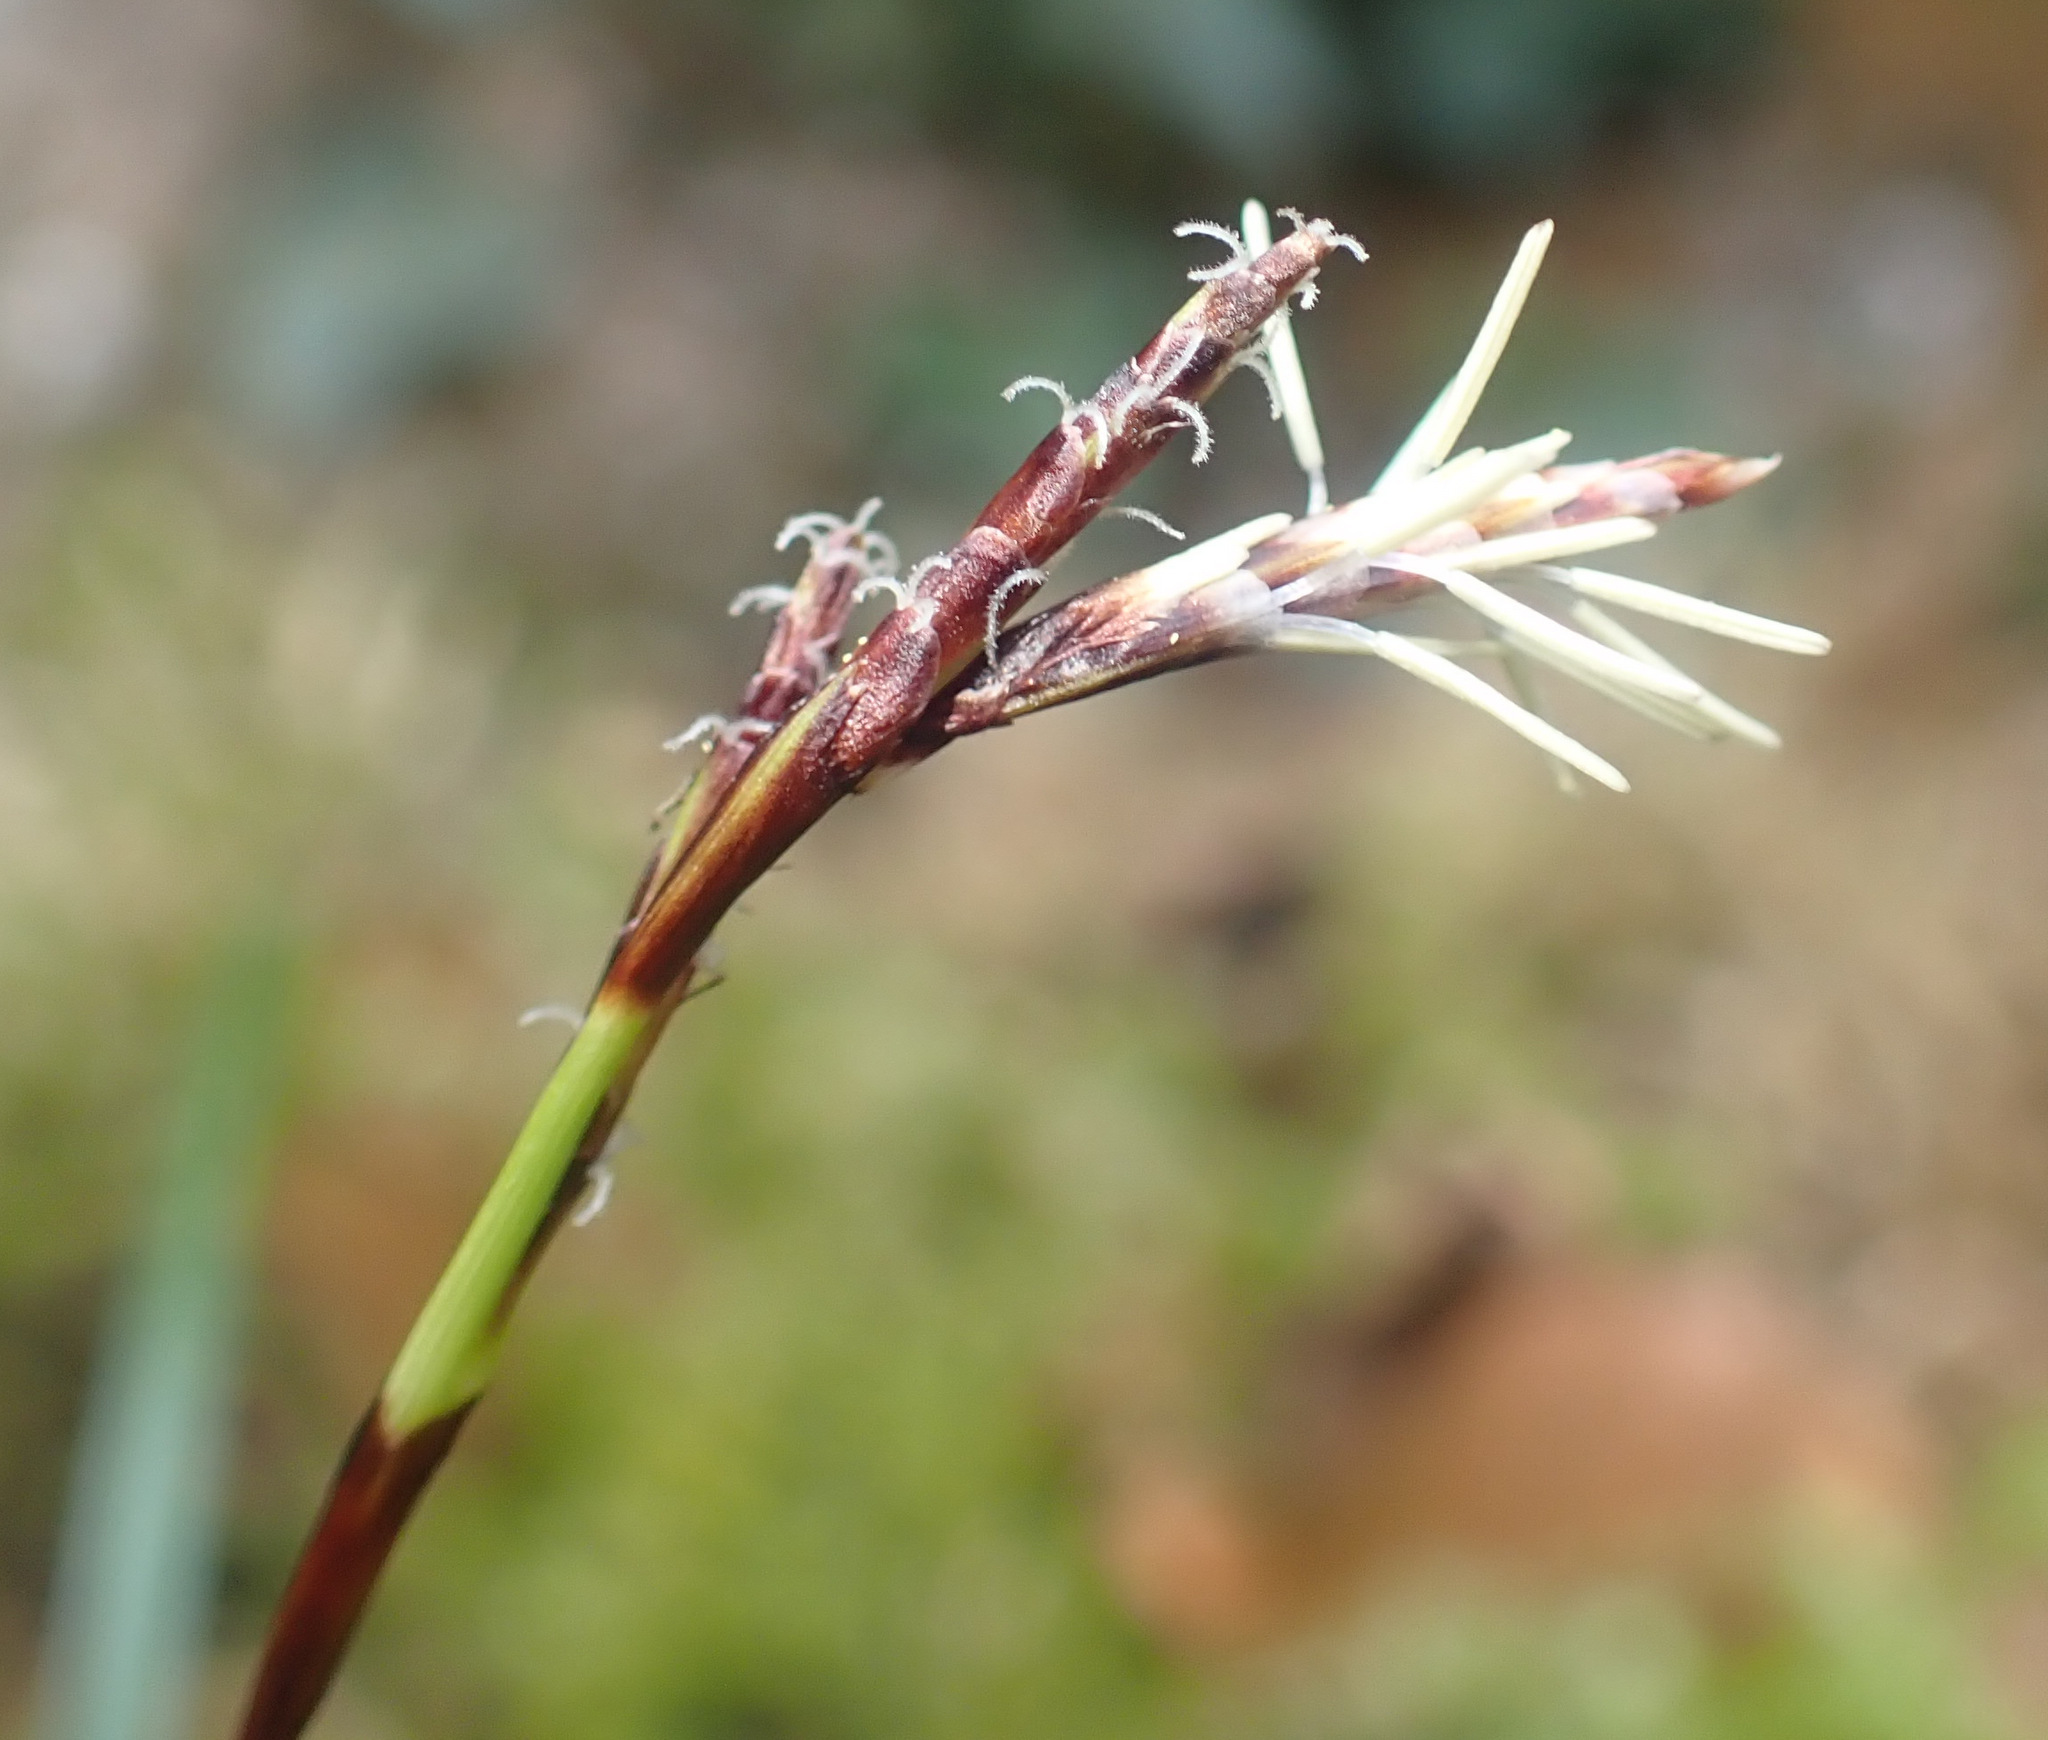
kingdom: Plantae
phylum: Tracheophyta
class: Liliopsida
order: Poales
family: Cyperaceae
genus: Carex
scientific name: Carex digitata
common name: Fingered sedge
